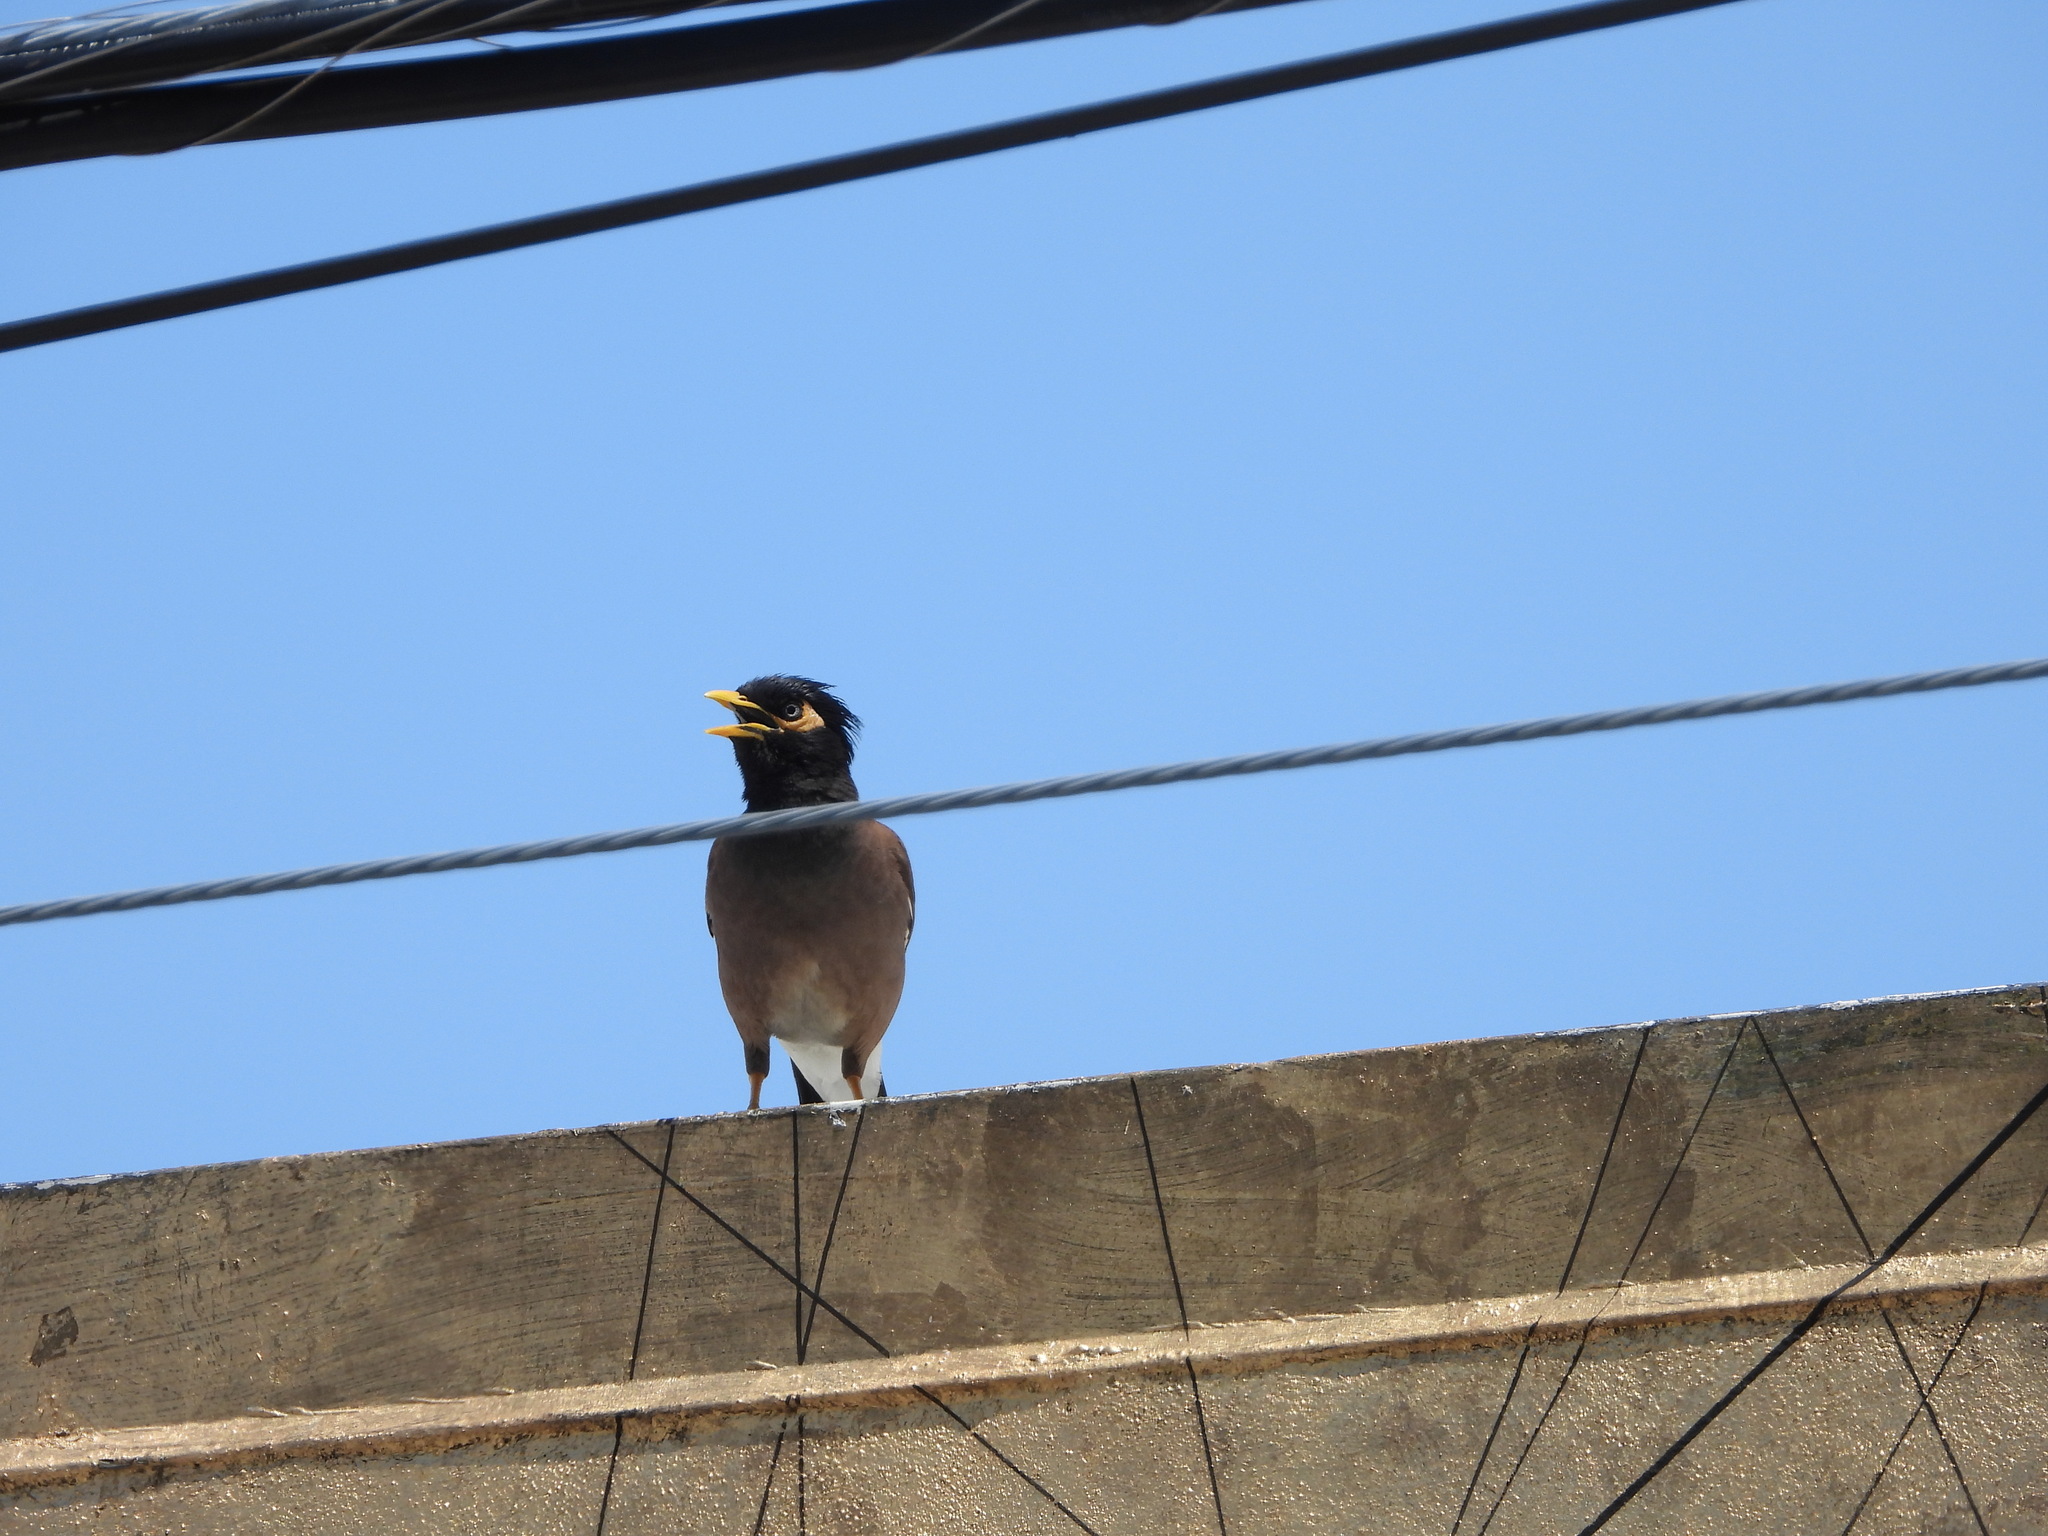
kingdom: Animalia
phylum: Chordata
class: Aves
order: Passeriformes
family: Sturnidae
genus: Acridotheres
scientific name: Acridotheres tristis
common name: Common myna
